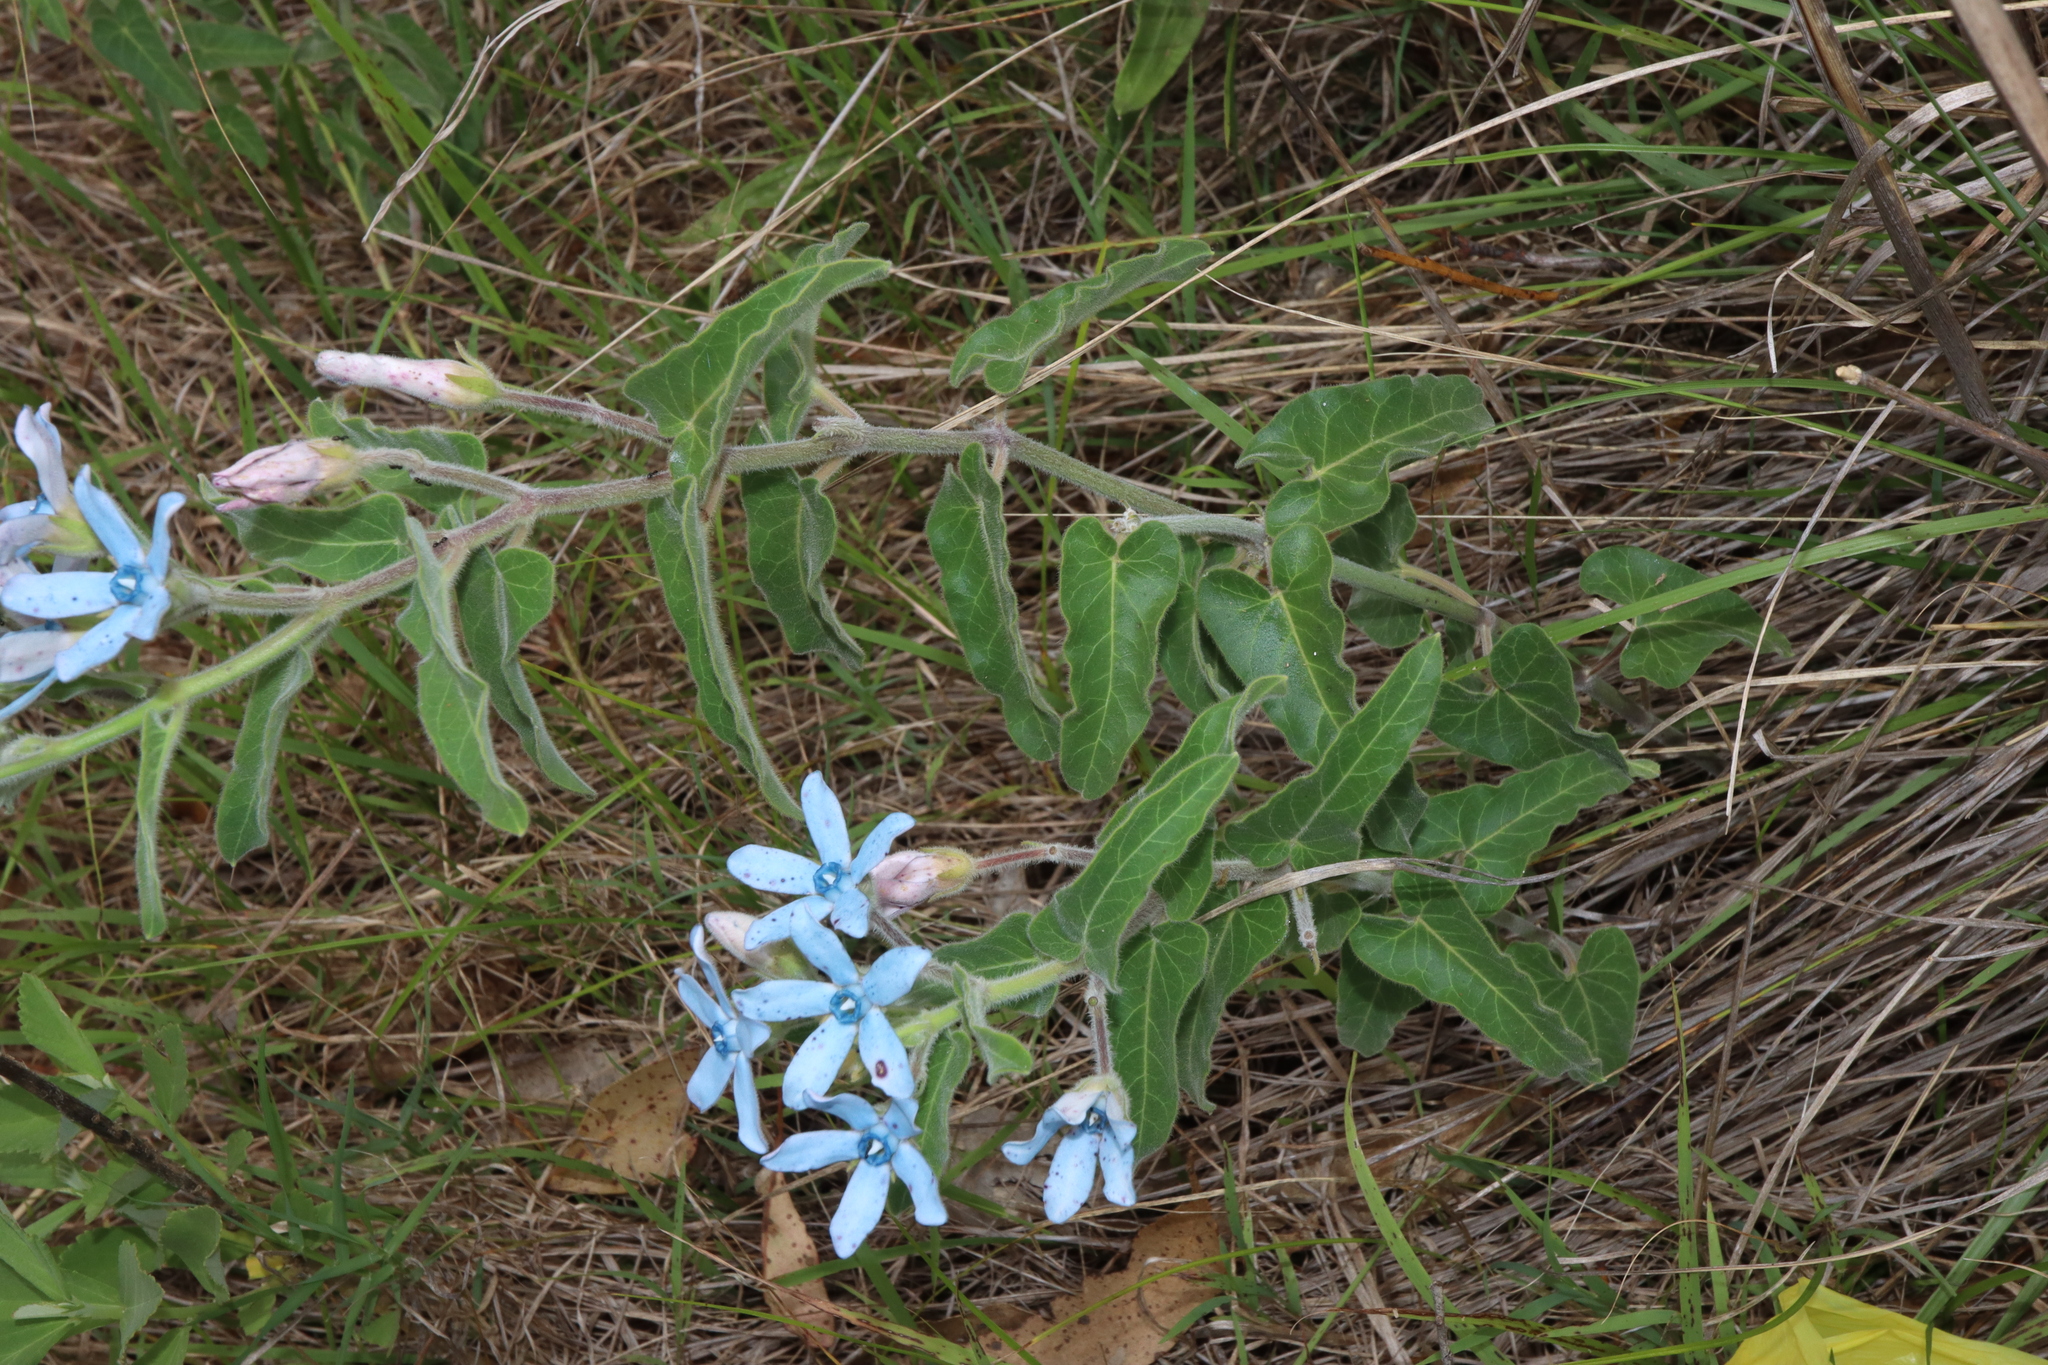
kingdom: Plantae
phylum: Tracheophyta
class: Magnoliopsida
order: Gentianales
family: Apocynaceae
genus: Oxypetalum
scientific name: Oxypetalum coeruleum
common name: Southern star
